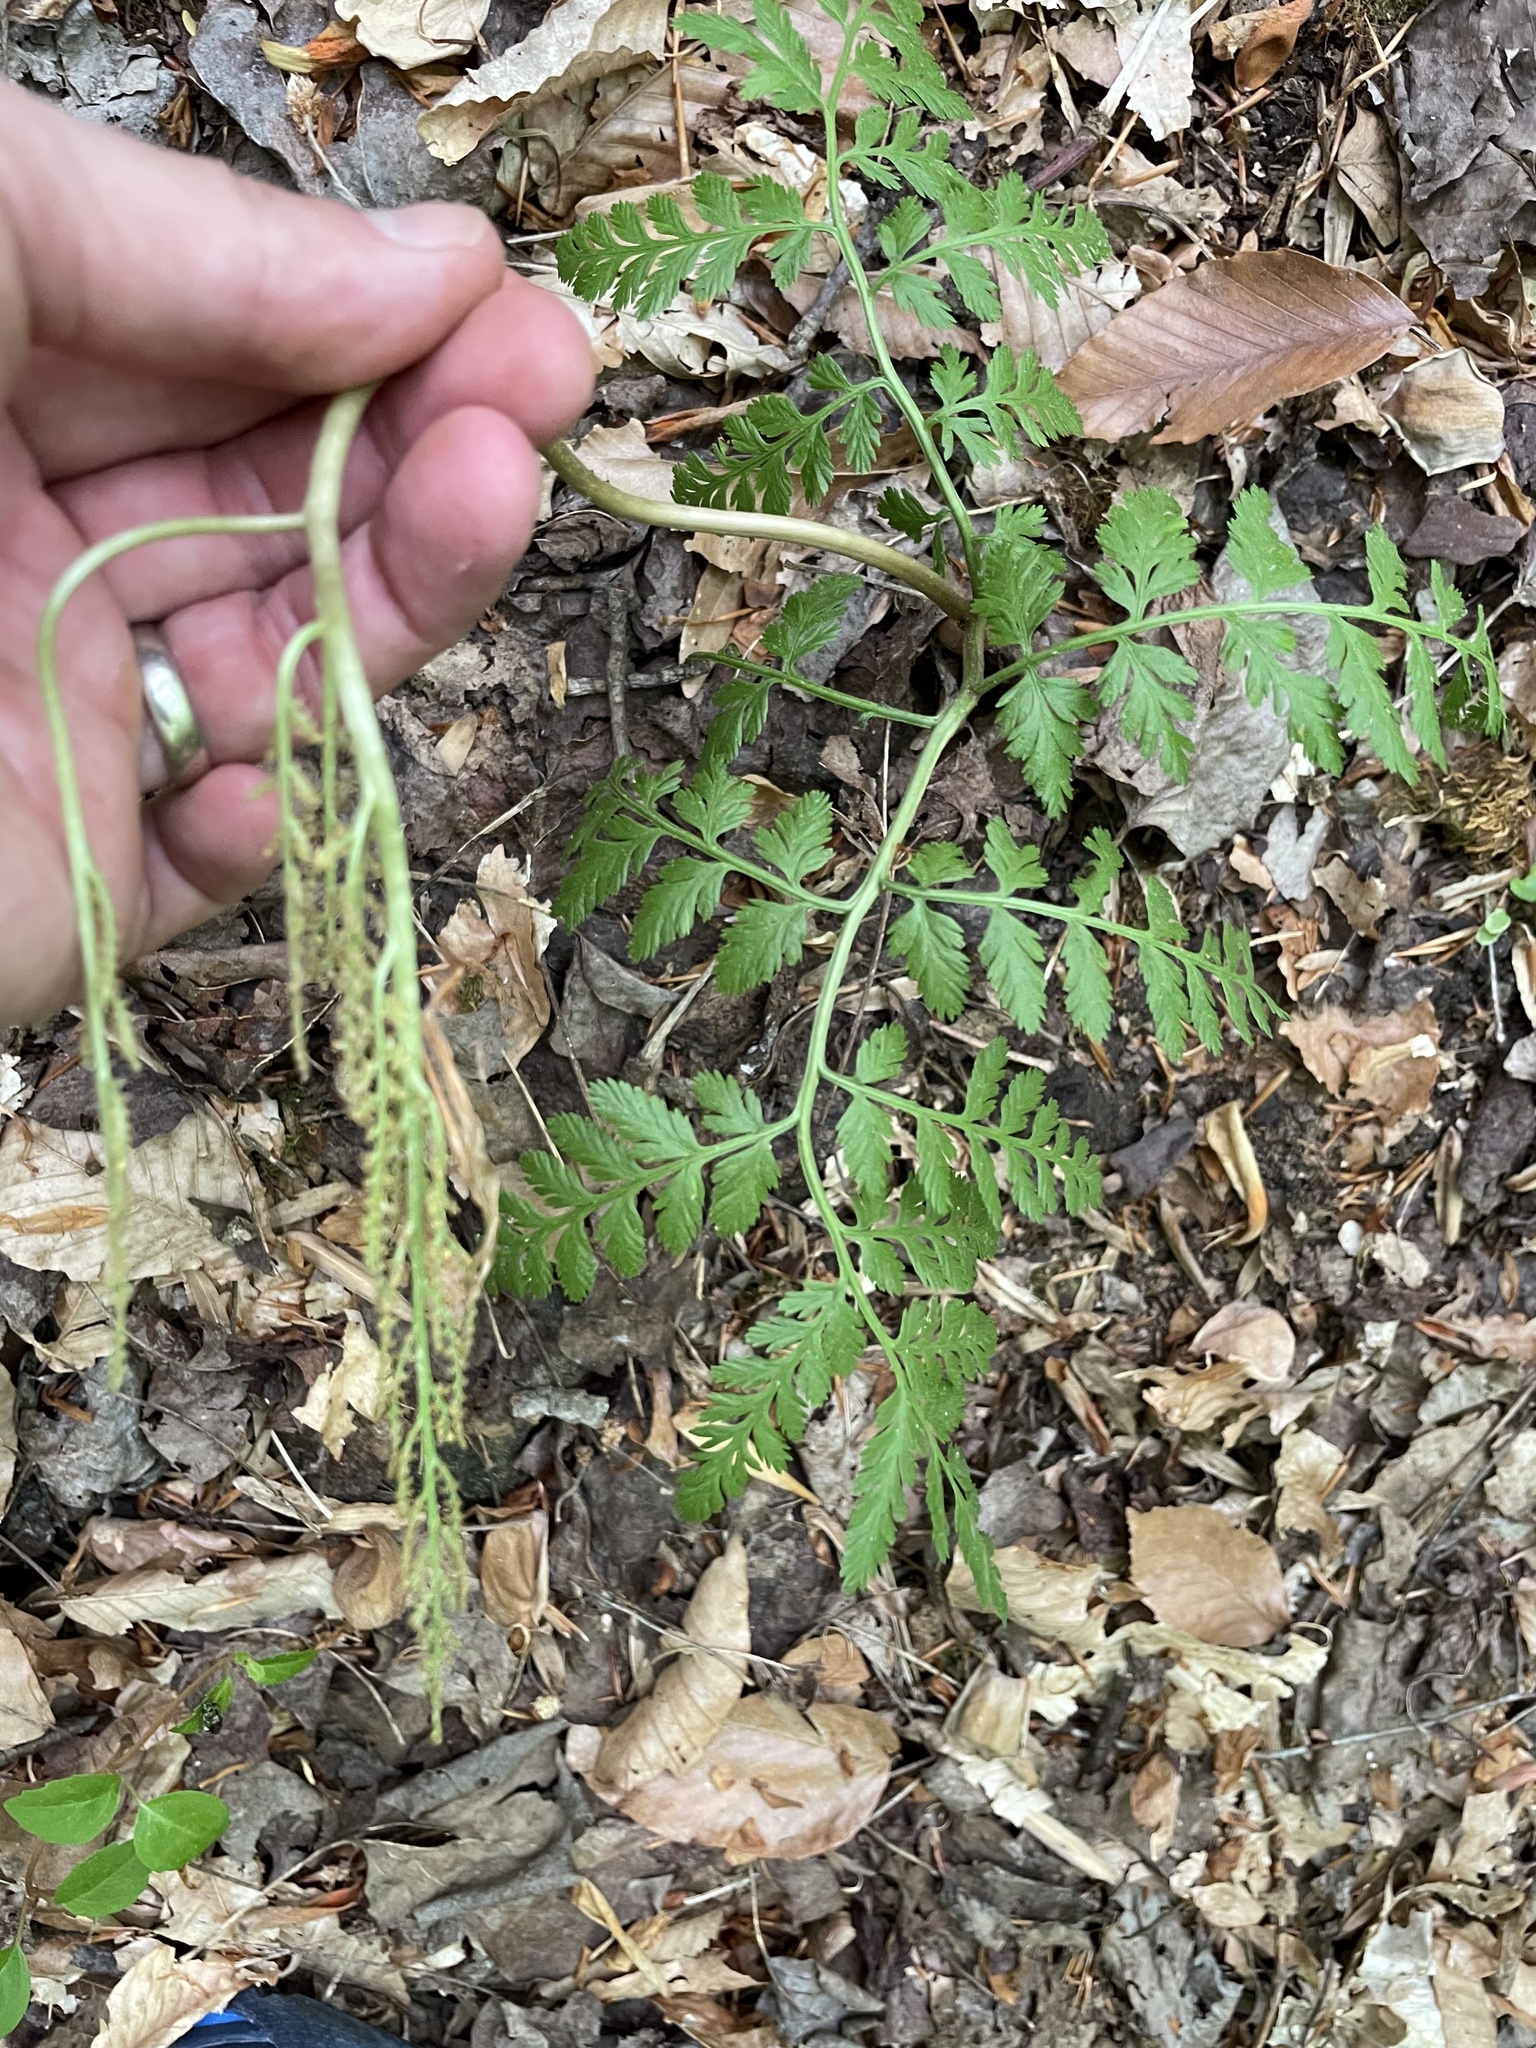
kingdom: Plantae
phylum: Tracheophyta
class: Polypodiopsida
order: Ophioglossales
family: Ophioglossaceae
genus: Botrypus
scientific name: Botrypus virginianus
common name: Common grapefern
